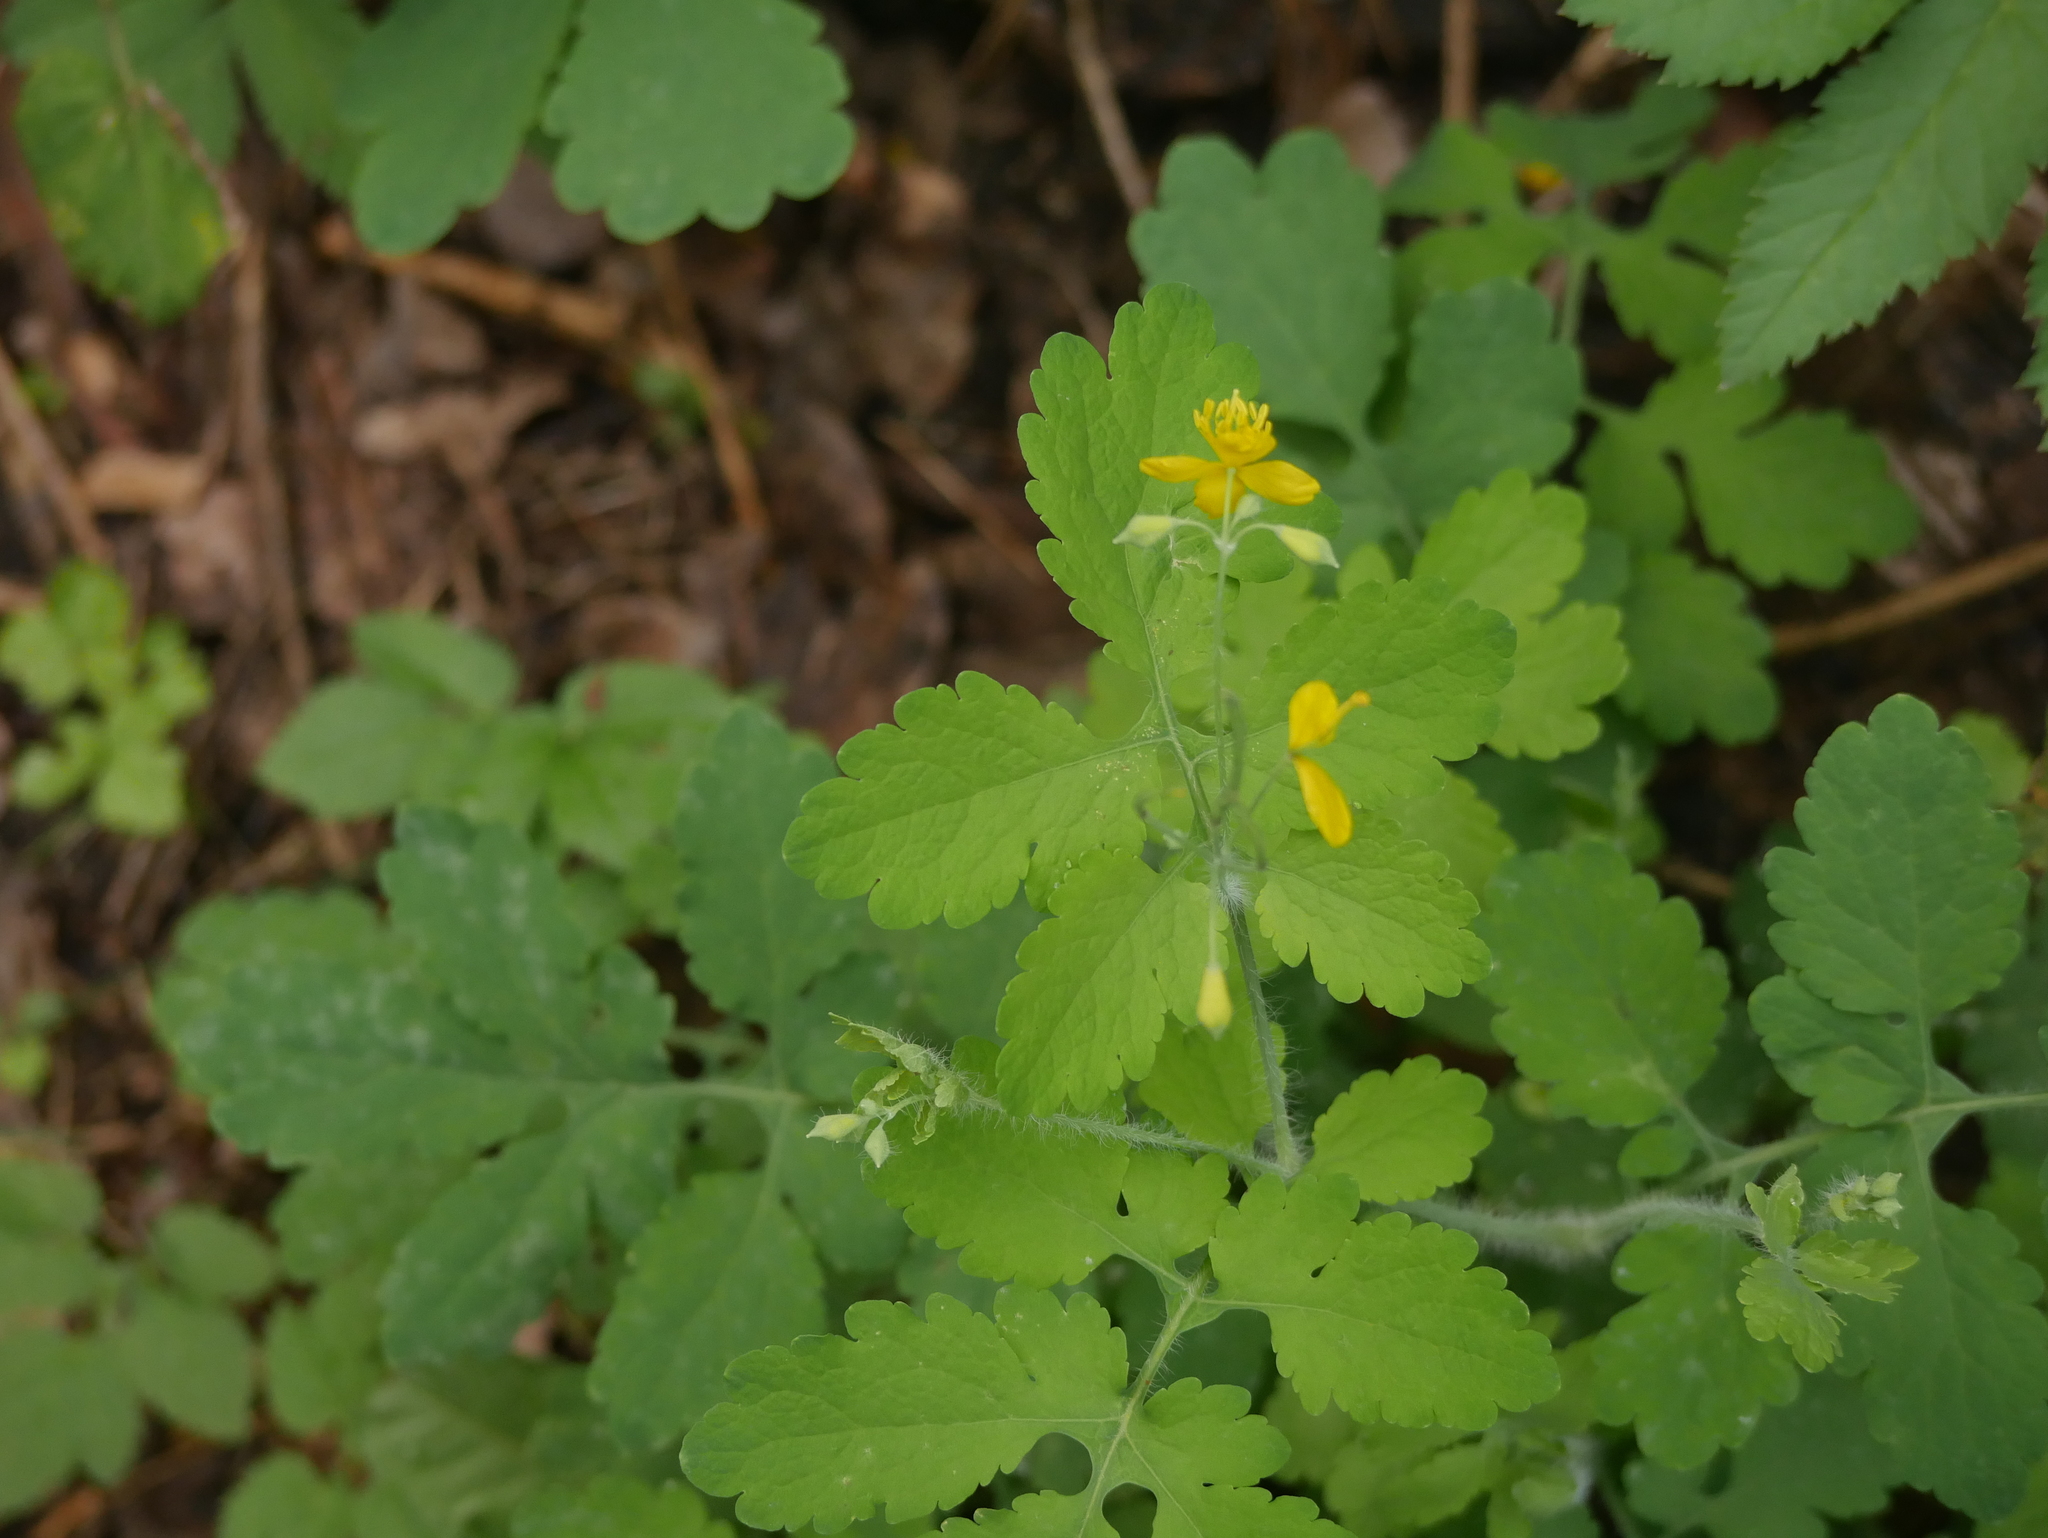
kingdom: Plantae
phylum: Tracheophyta
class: Magnoliopsida
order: Ranunculales
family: Papaveraceae
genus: Chelidonium
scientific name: Chelidonium majus
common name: Greater celandine
